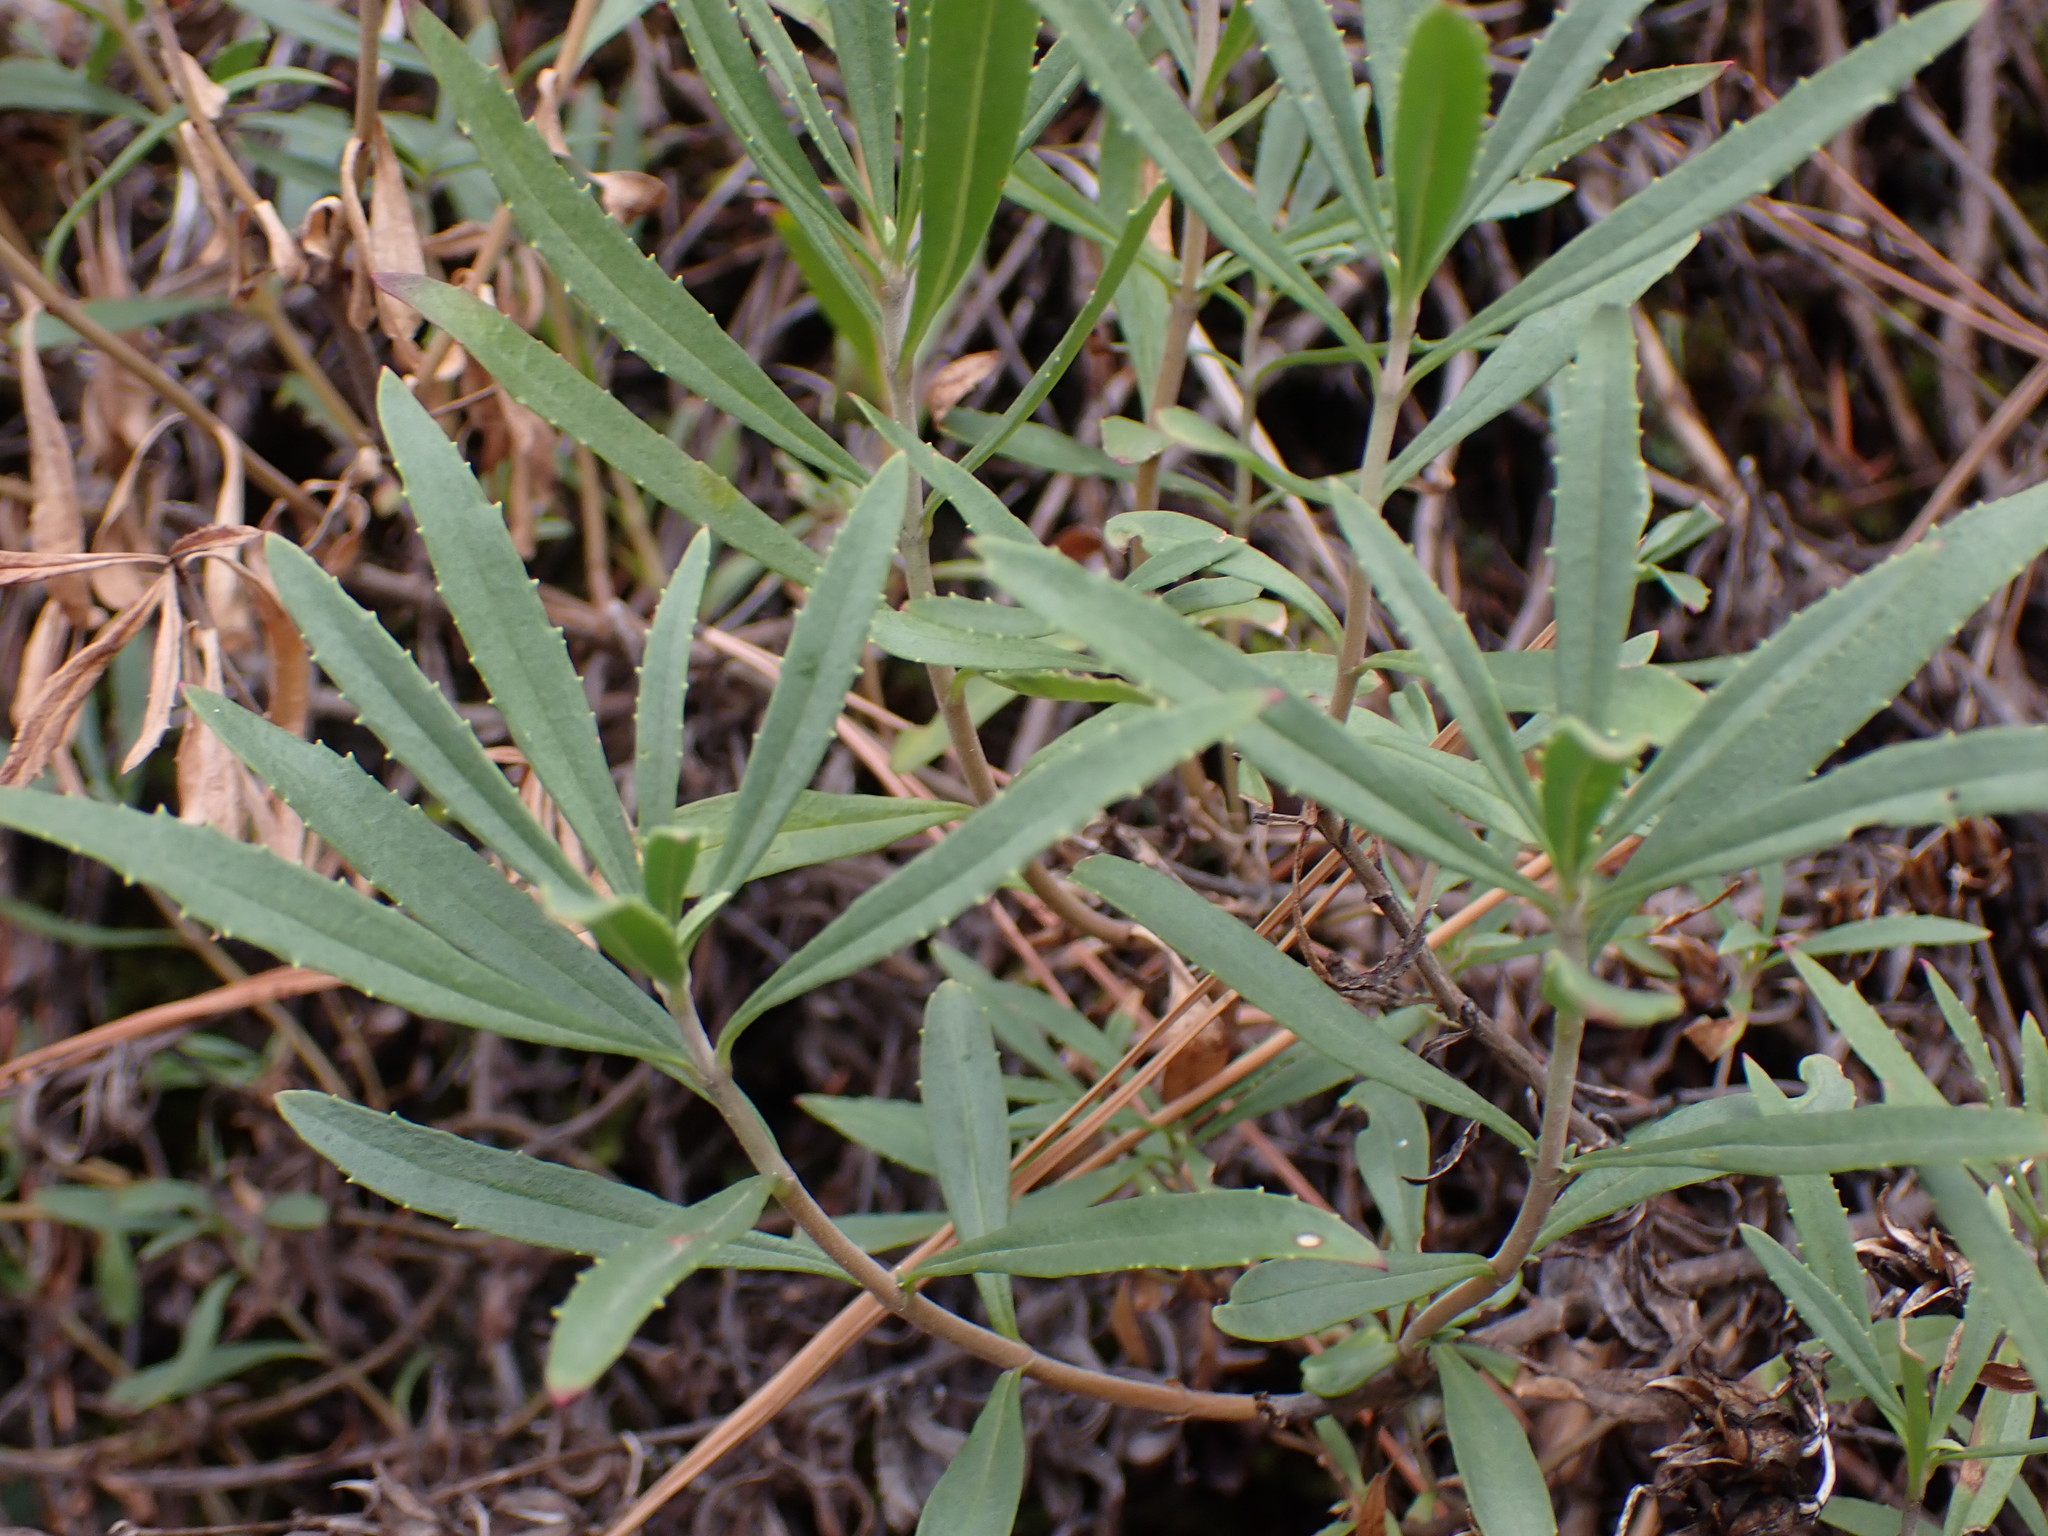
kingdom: Plantae
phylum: Tracheophyta
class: Magnoliopsida
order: Lamiales
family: Plantaginaceae
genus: Penstemon
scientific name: Penstemon fruticosus
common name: Bush penstemon
